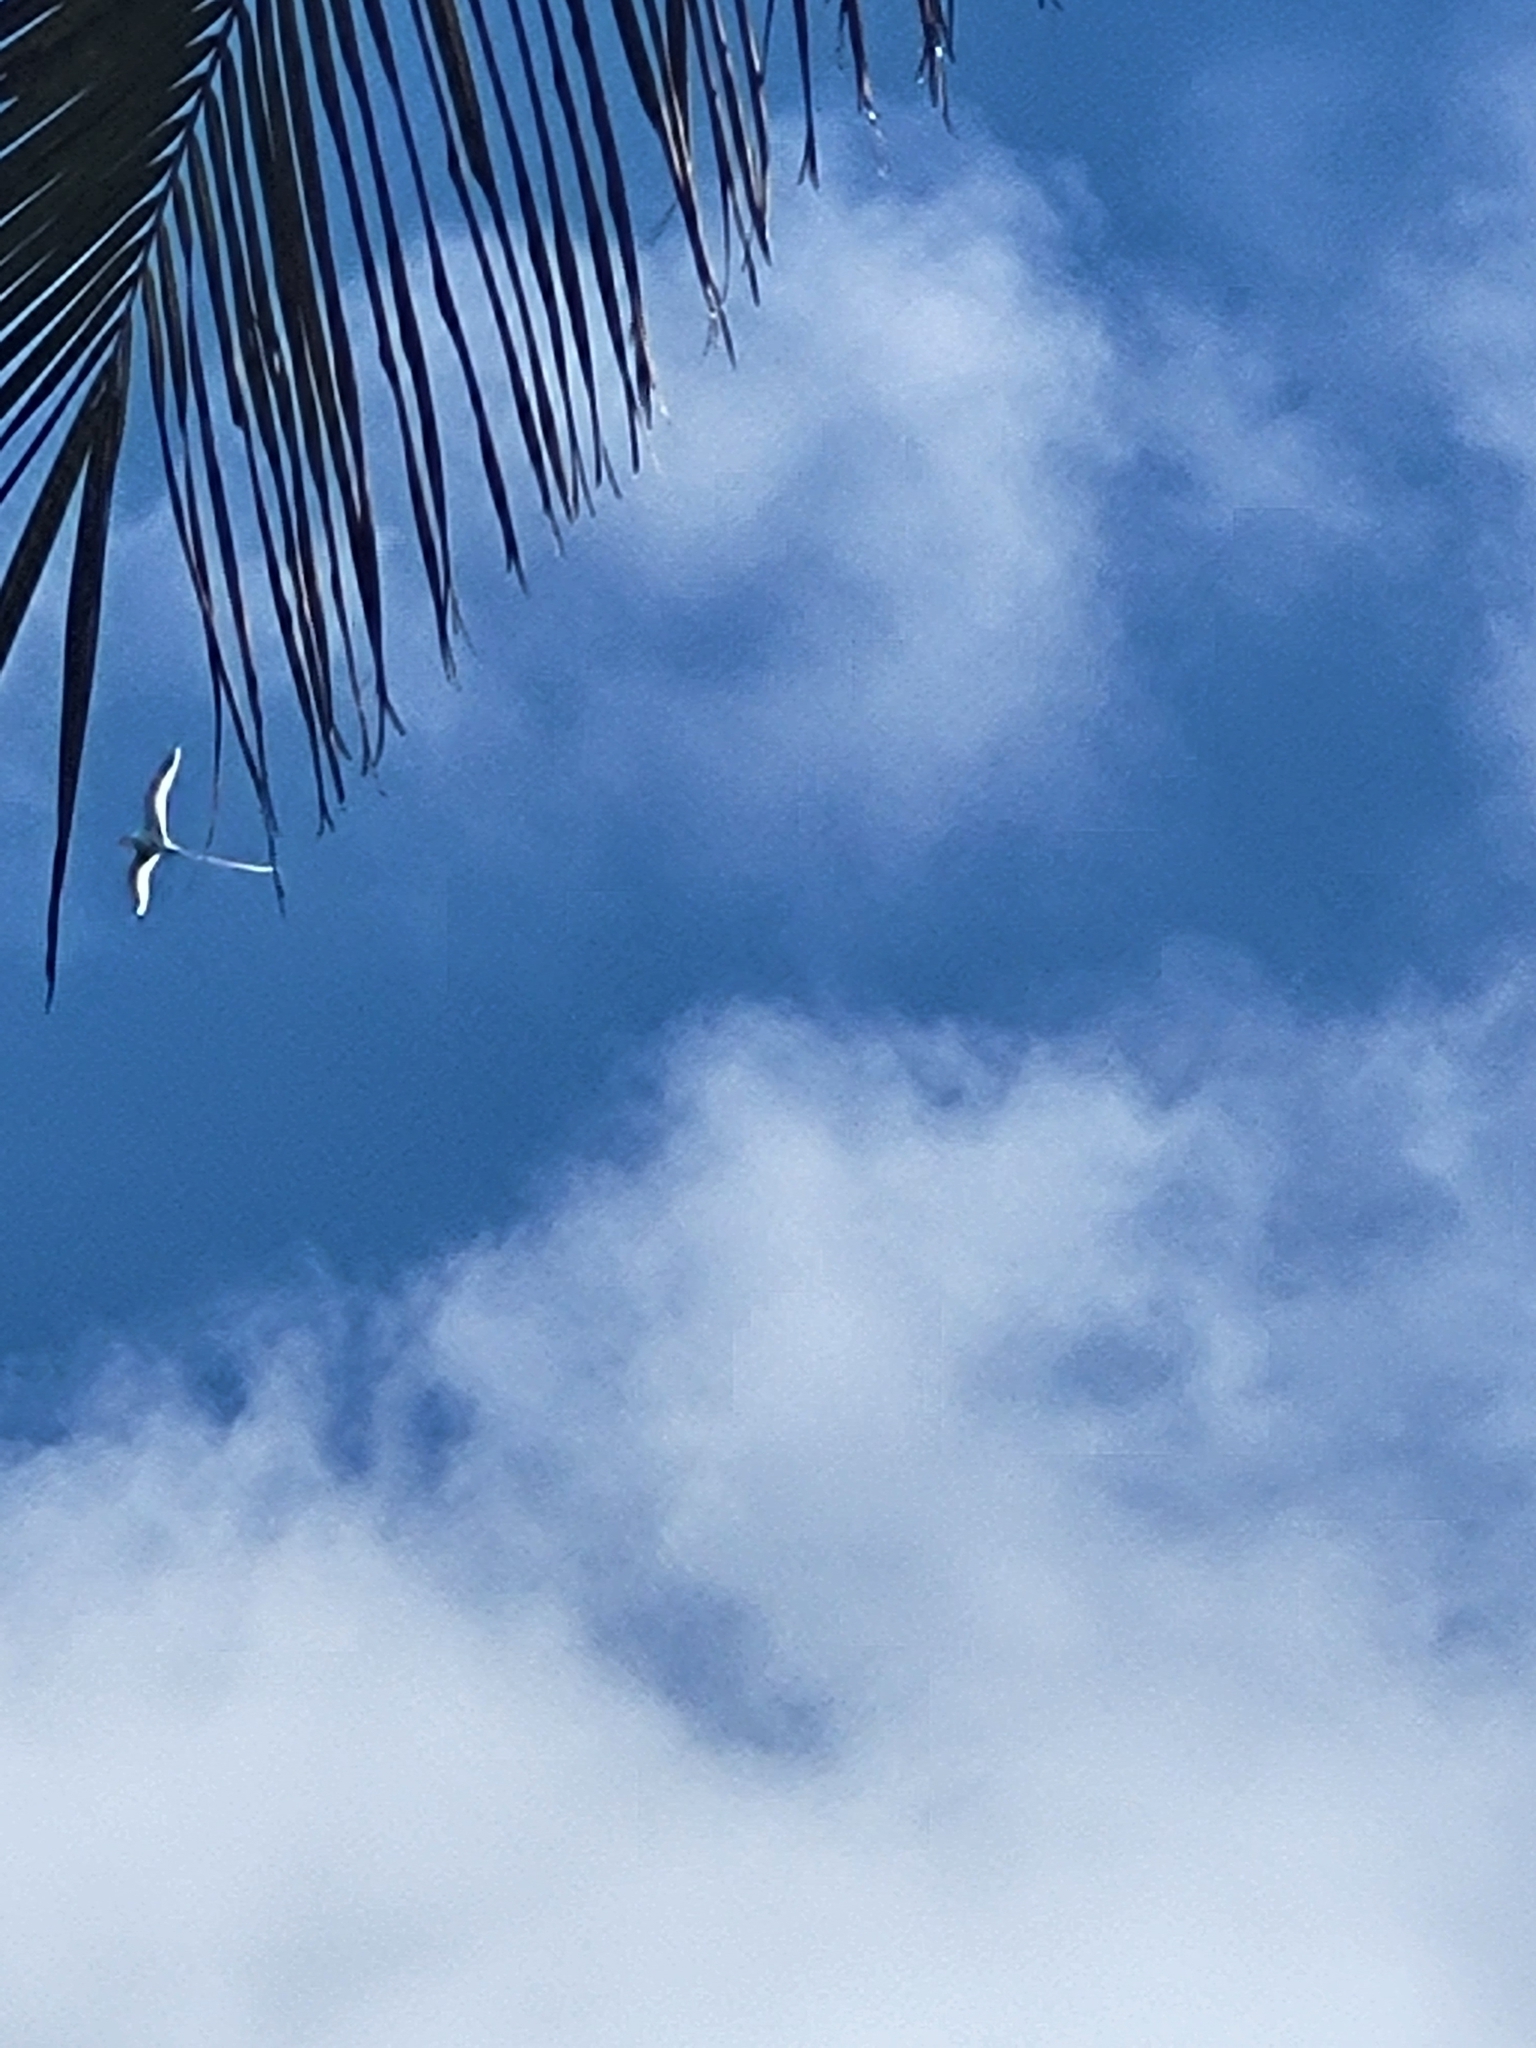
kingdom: Animalia
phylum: Chordata
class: Aves
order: Phaethontiformes
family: Phaethontidae
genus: Phaethon
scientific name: Phaethon lepturus
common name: White-tailed tropicbird
